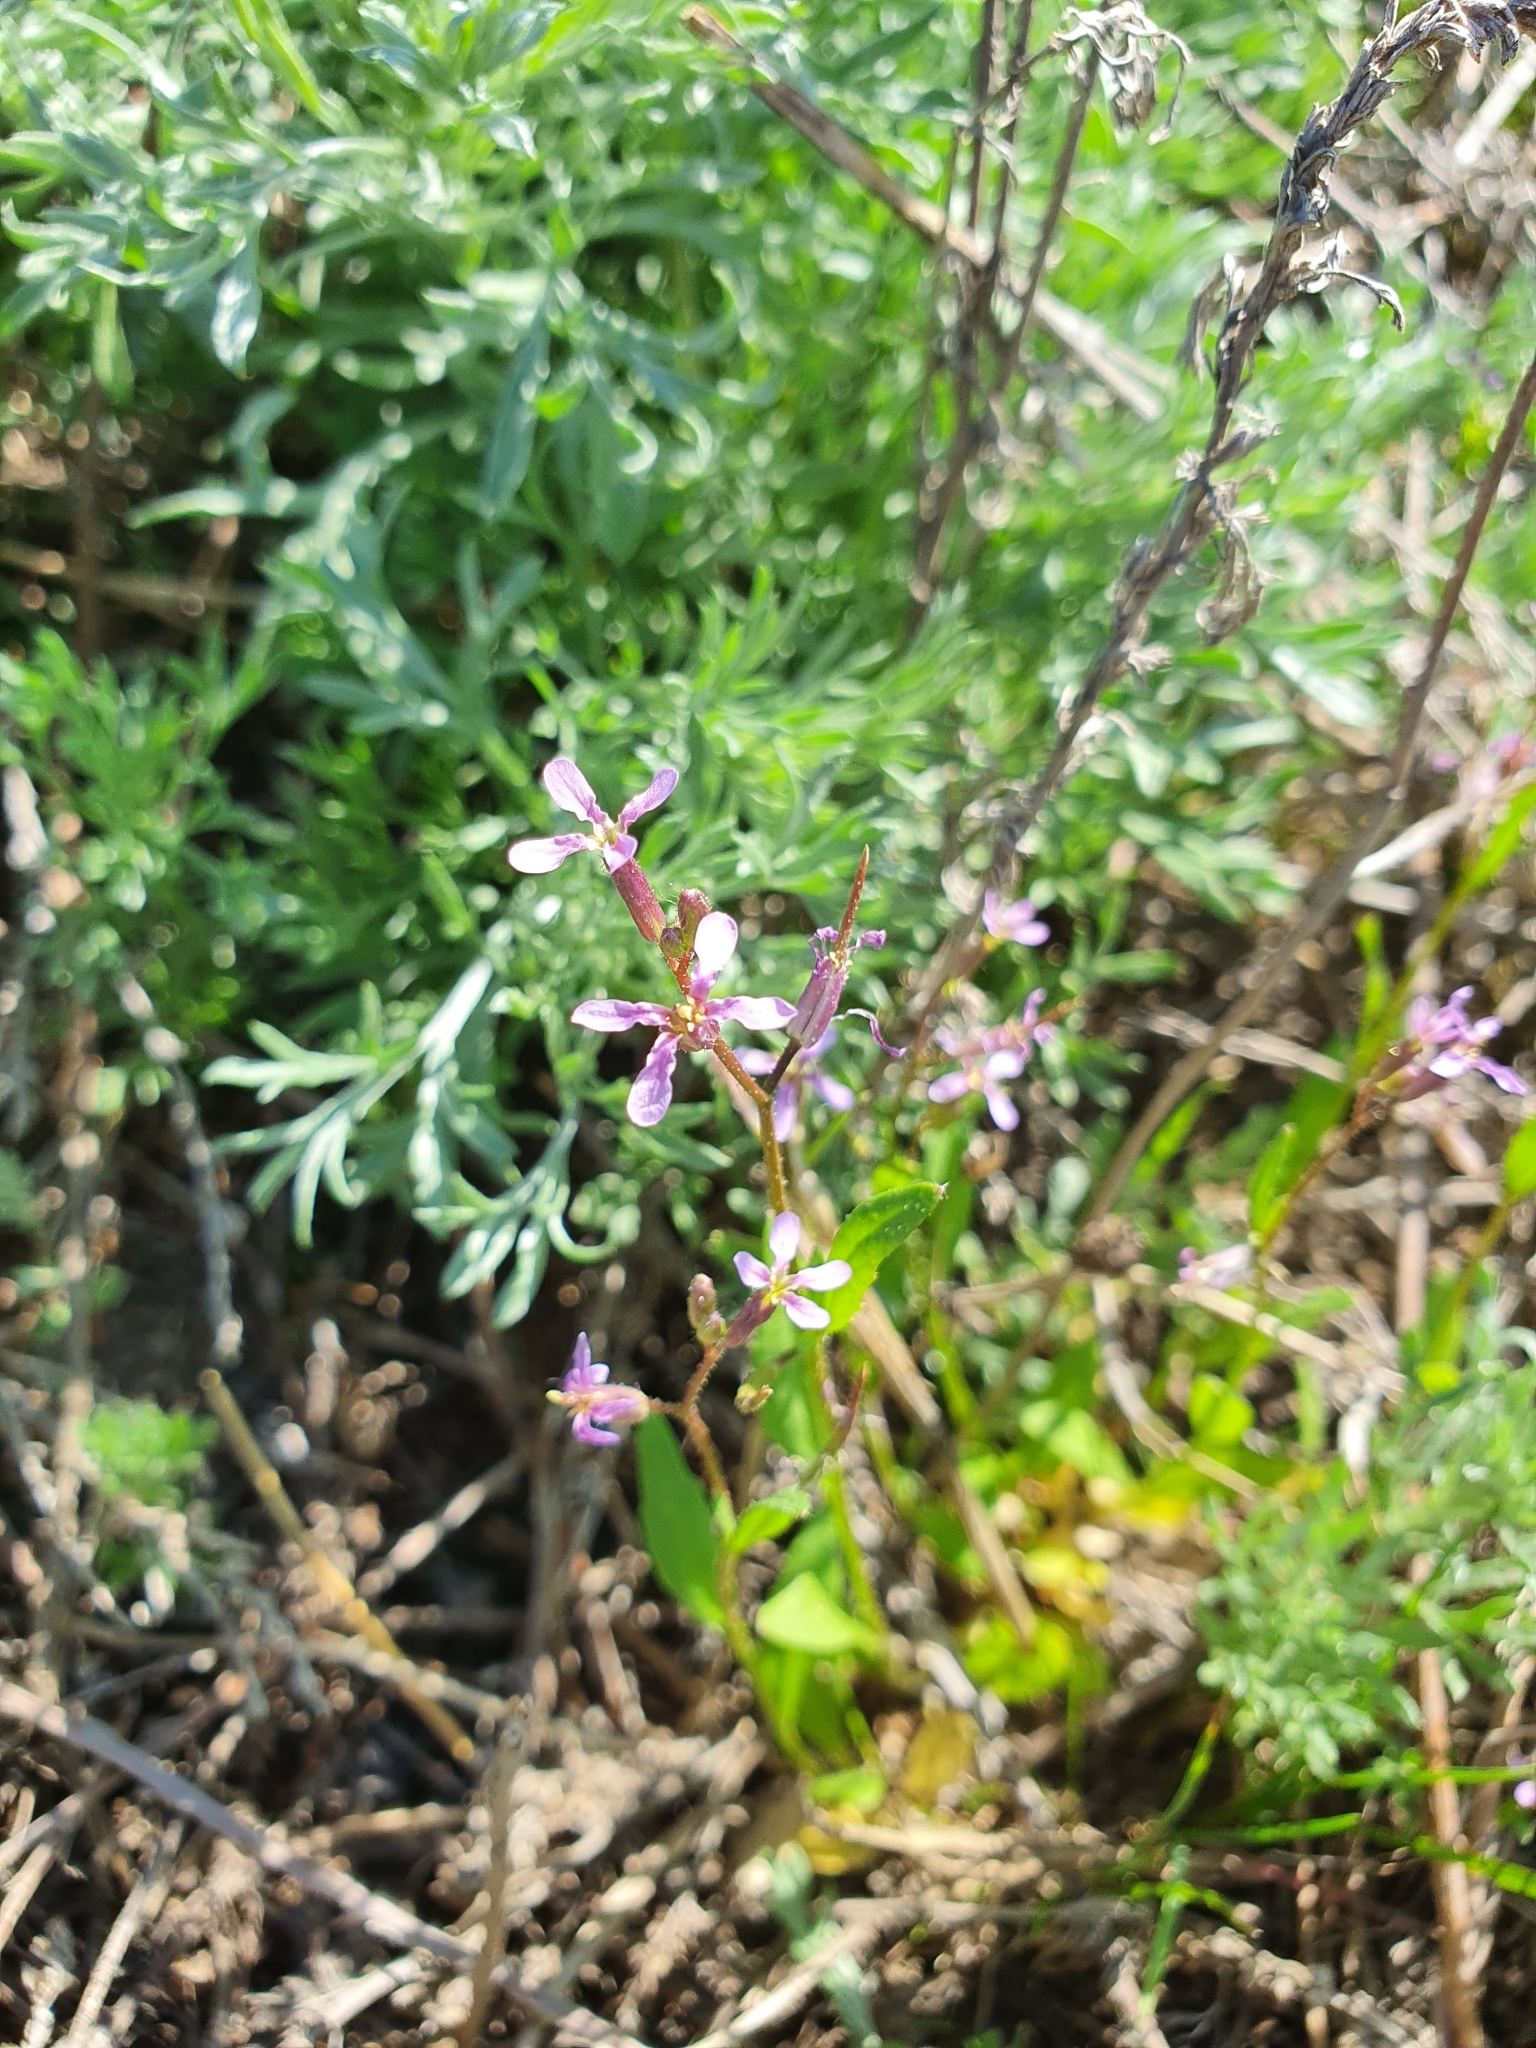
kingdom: Plantae
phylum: Tracheophyta
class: Magnoliopsida
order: Brassicales
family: Brassicaceae
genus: Chorispora
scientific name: Chorispora tenella
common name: Crossflower
